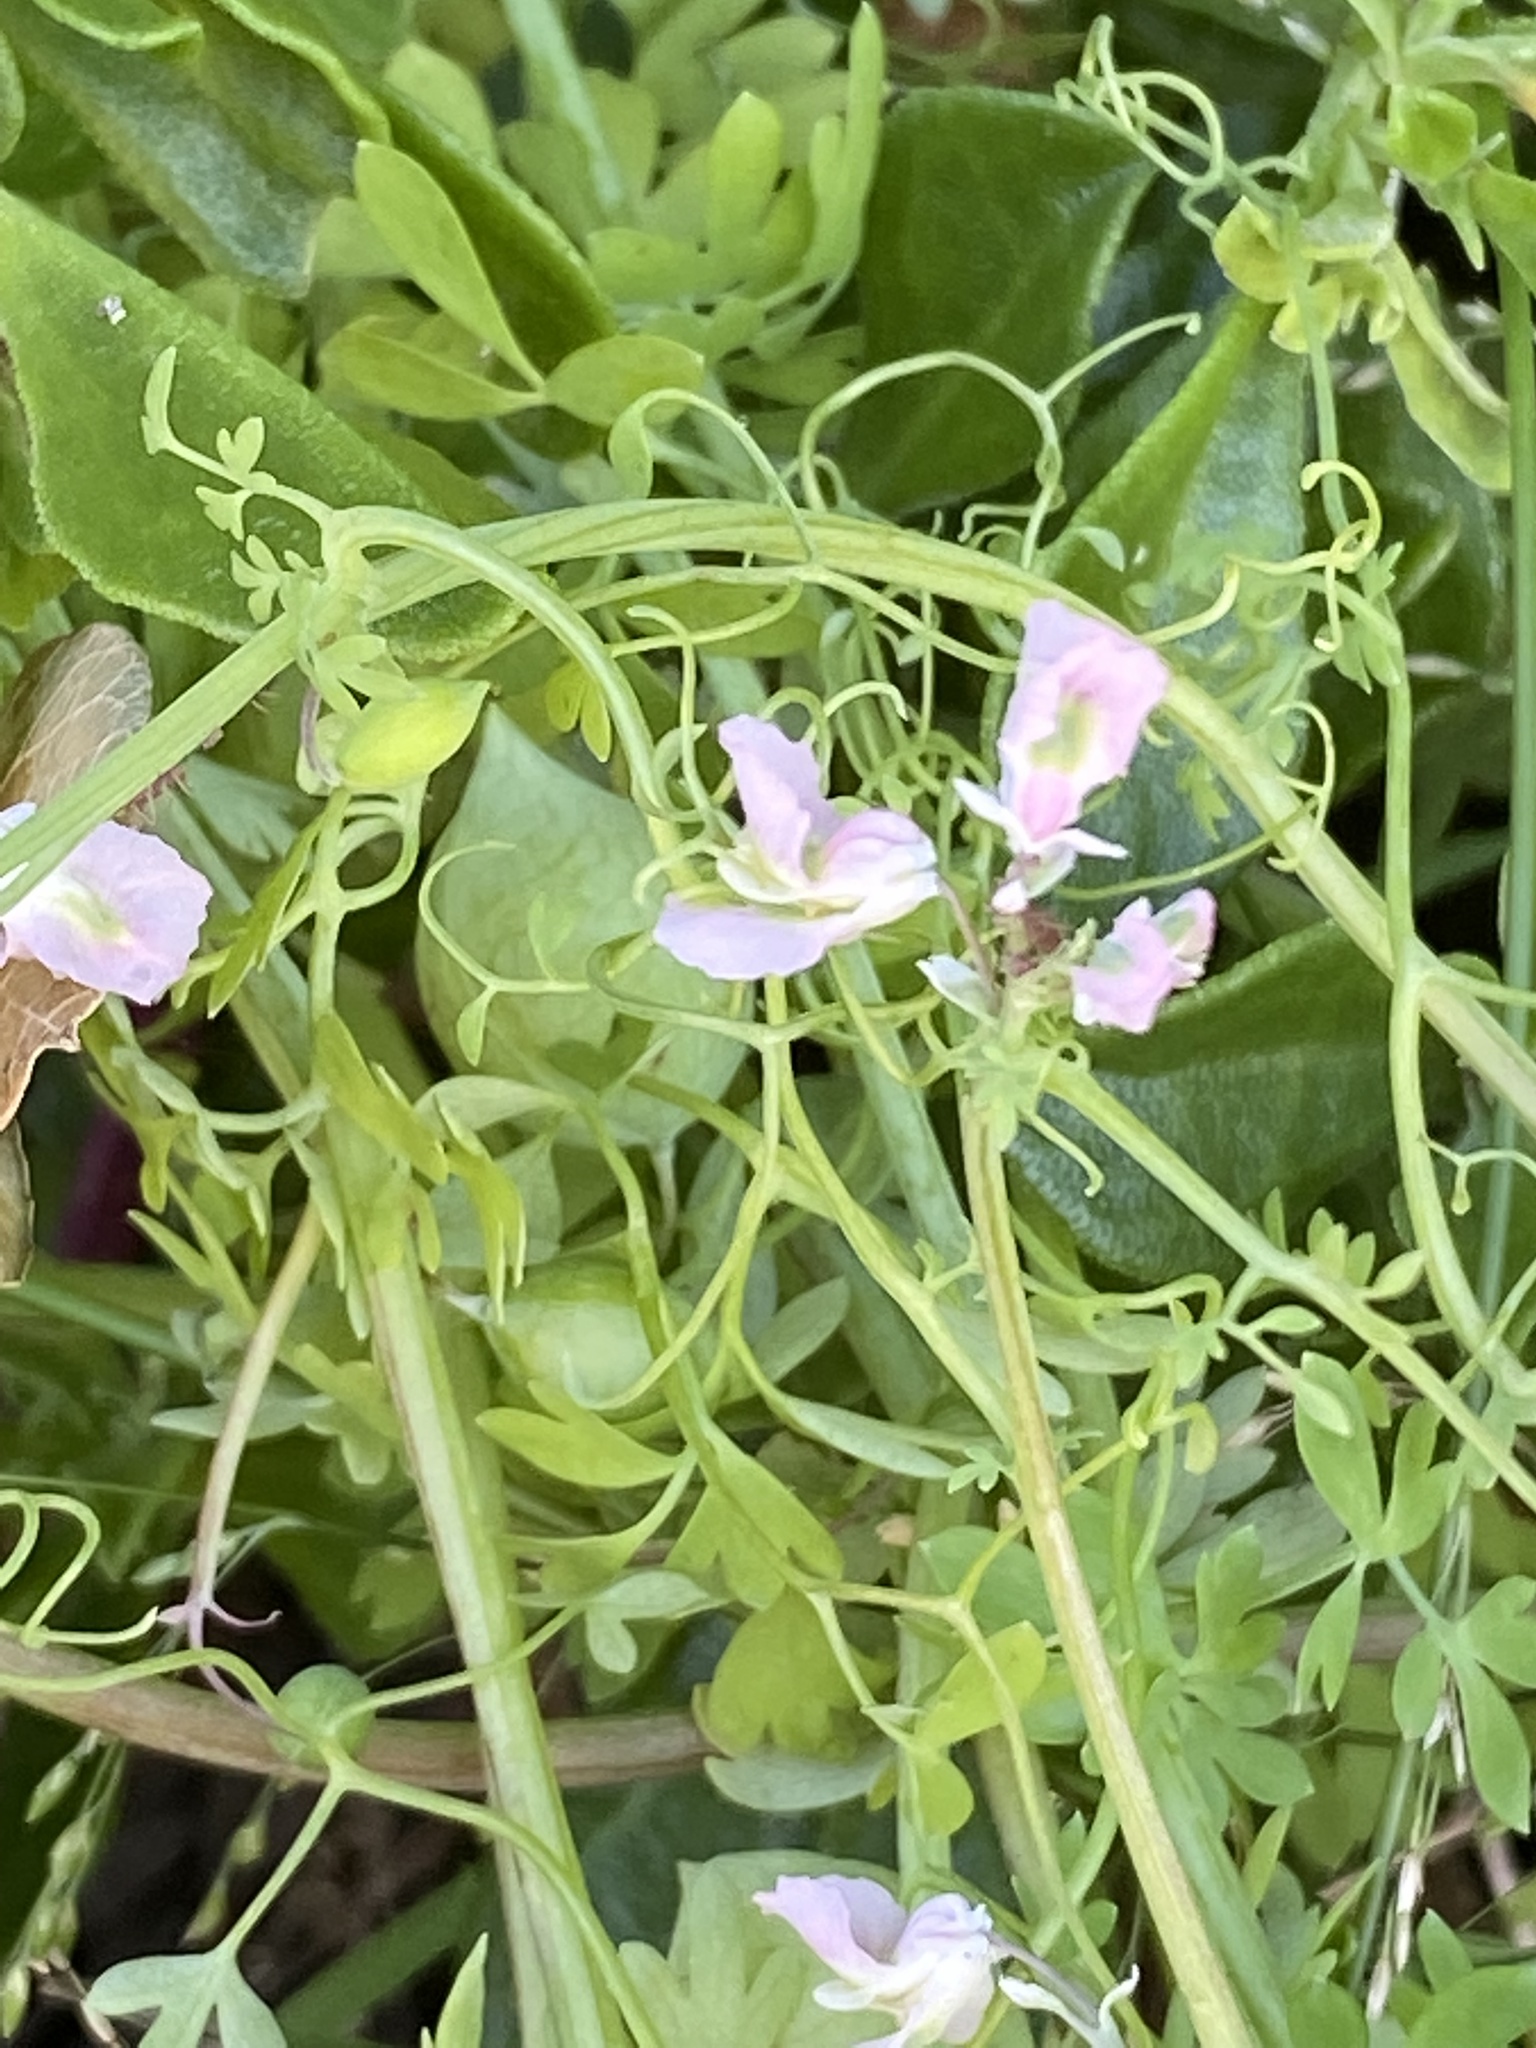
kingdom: Plantae
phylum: Tracheophyta
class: Magnoliopsida
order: Ranunculales
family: Papaveraceae
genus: Cysticapnos
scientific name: Cysticapnos vesicaria
